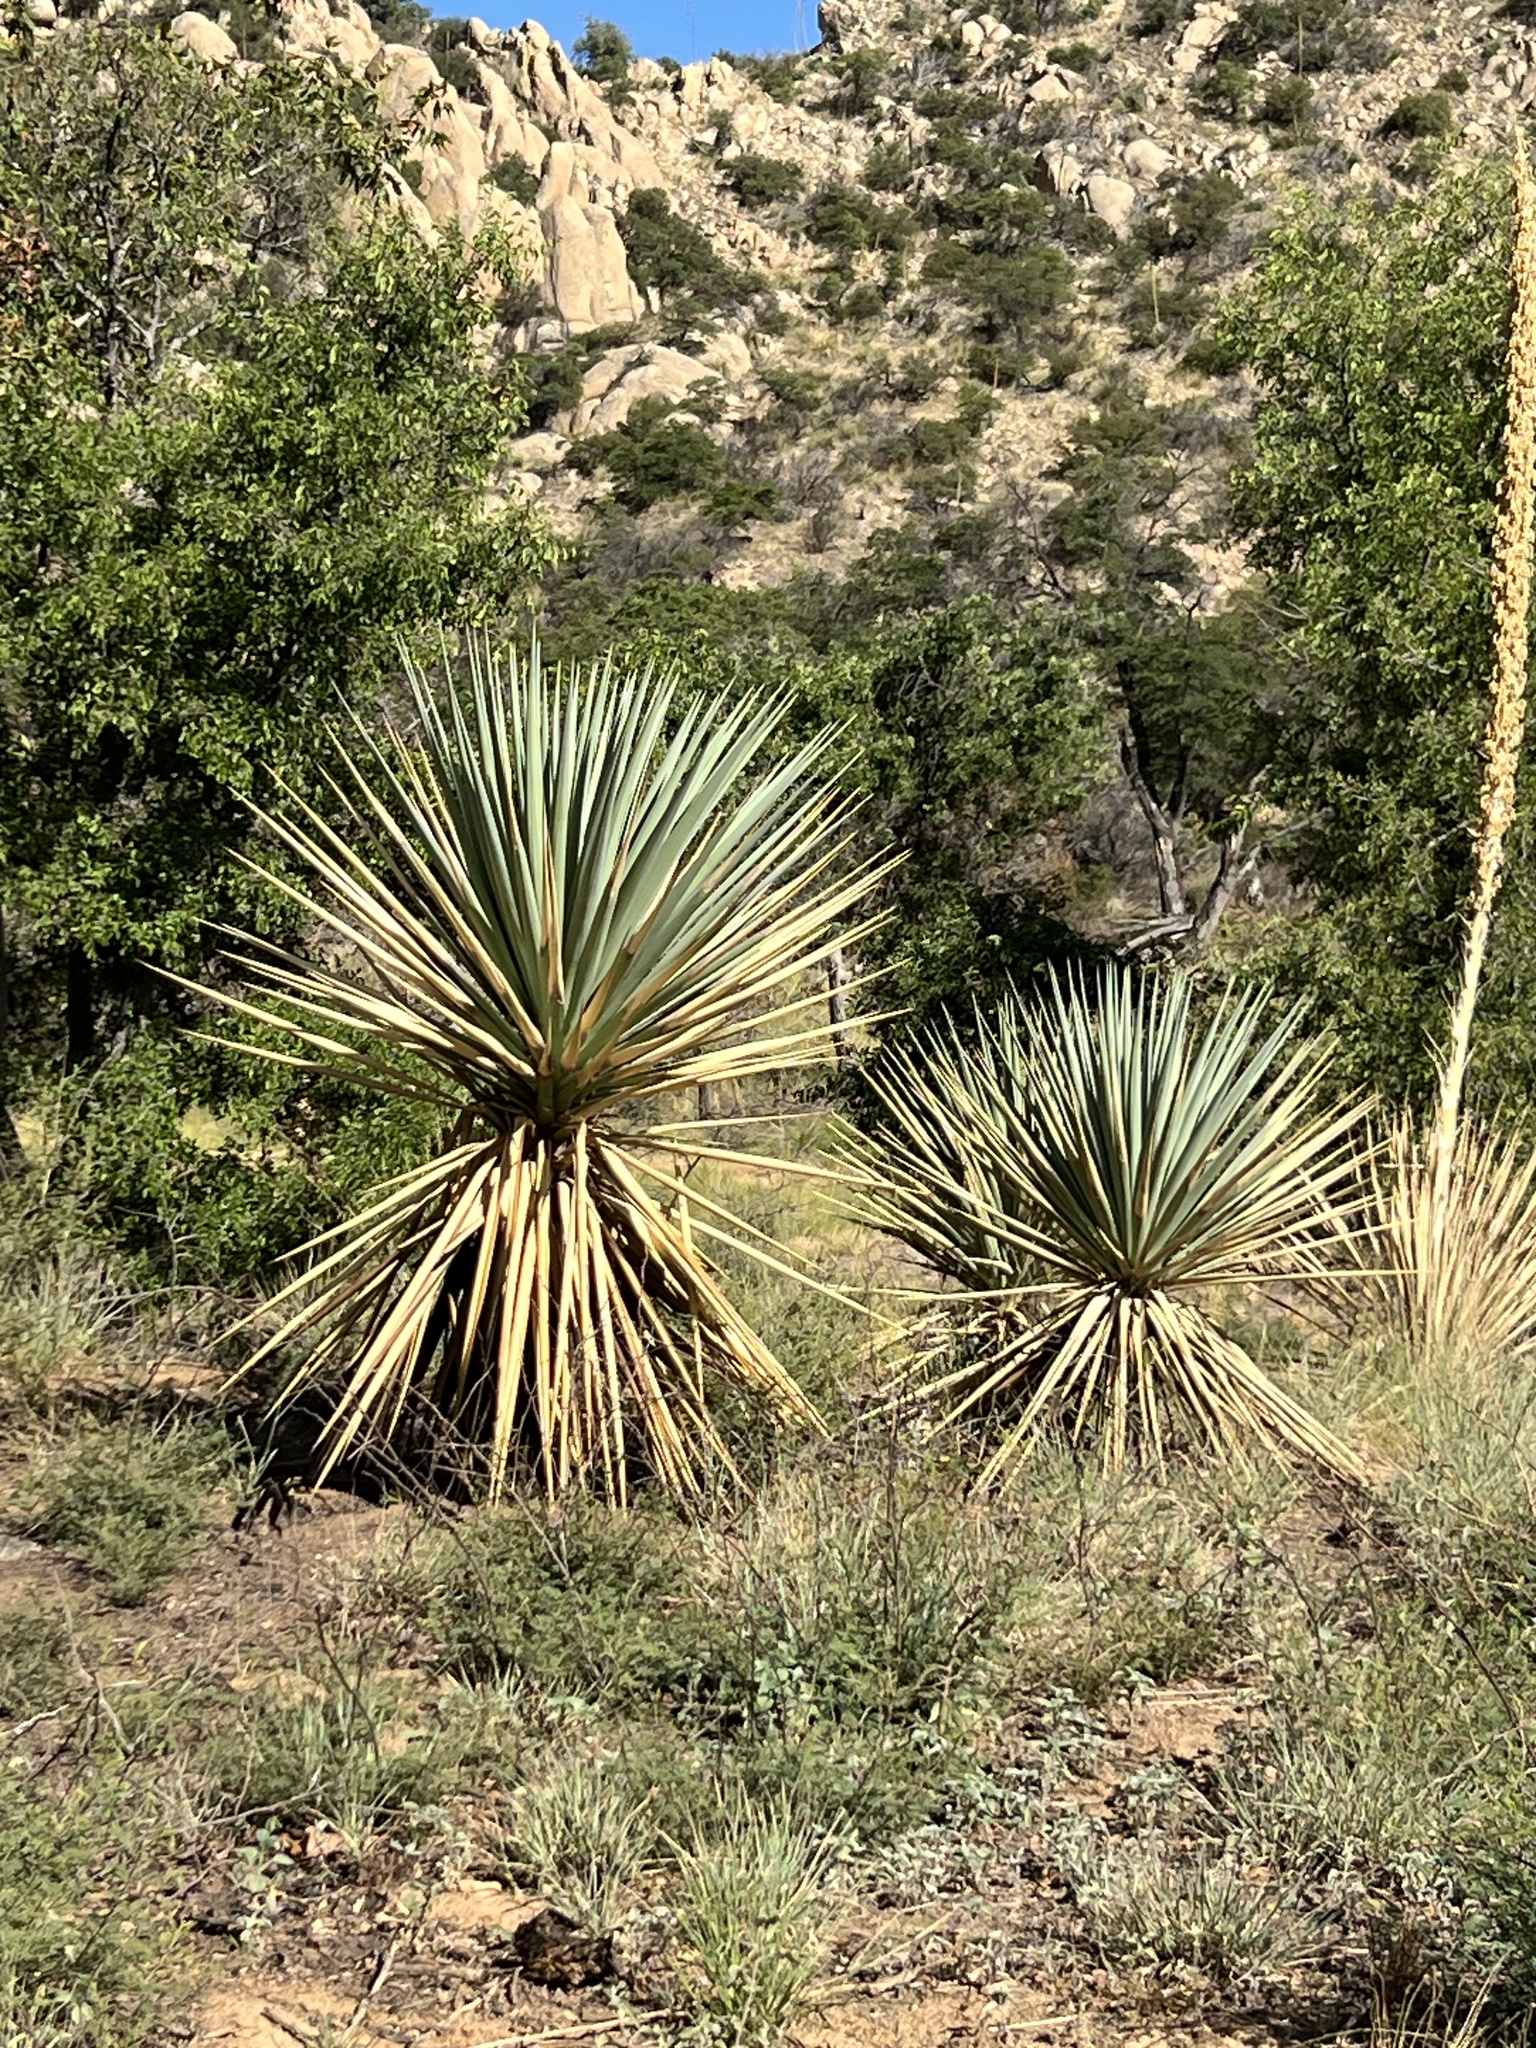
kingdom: Plantae
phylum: Tracheophyta
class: Liliopsida
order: Asparagales
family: Asparagaceae
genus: Yucca
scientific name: Yucca schottii
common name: Hoary yucca
